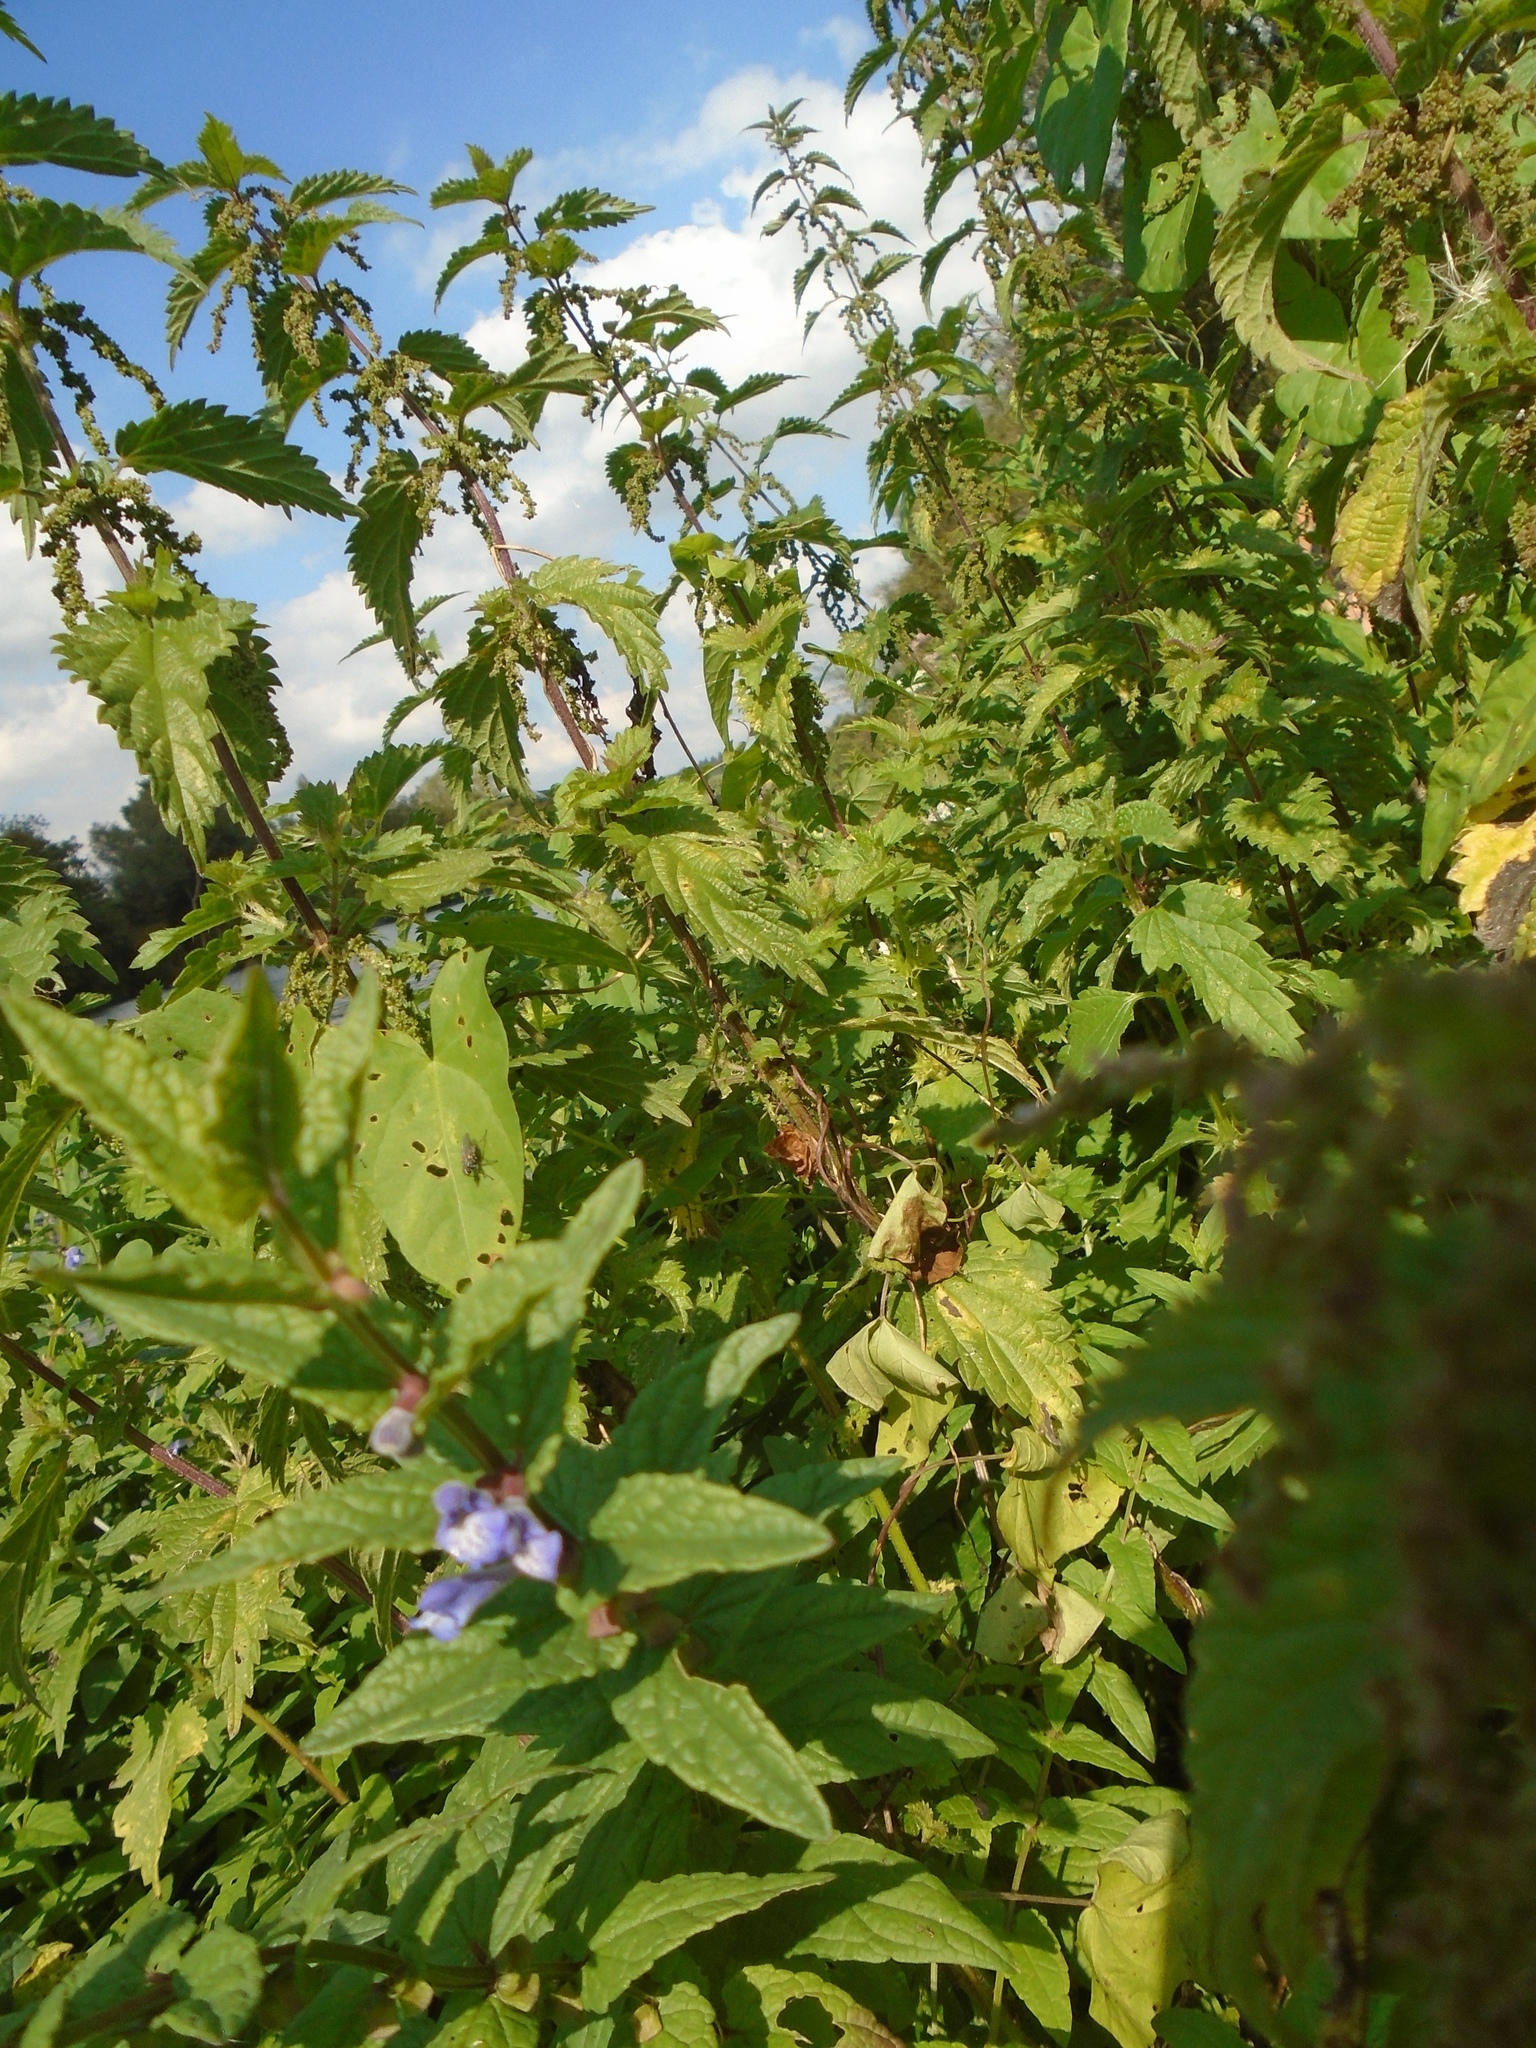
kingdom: Plantae
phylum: Tracheophyta
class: Magnoliopsida
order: Lamiales
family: Lamiaceae
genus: Scutellaria
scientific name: Scutellaria galericulata
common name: Skullcap
